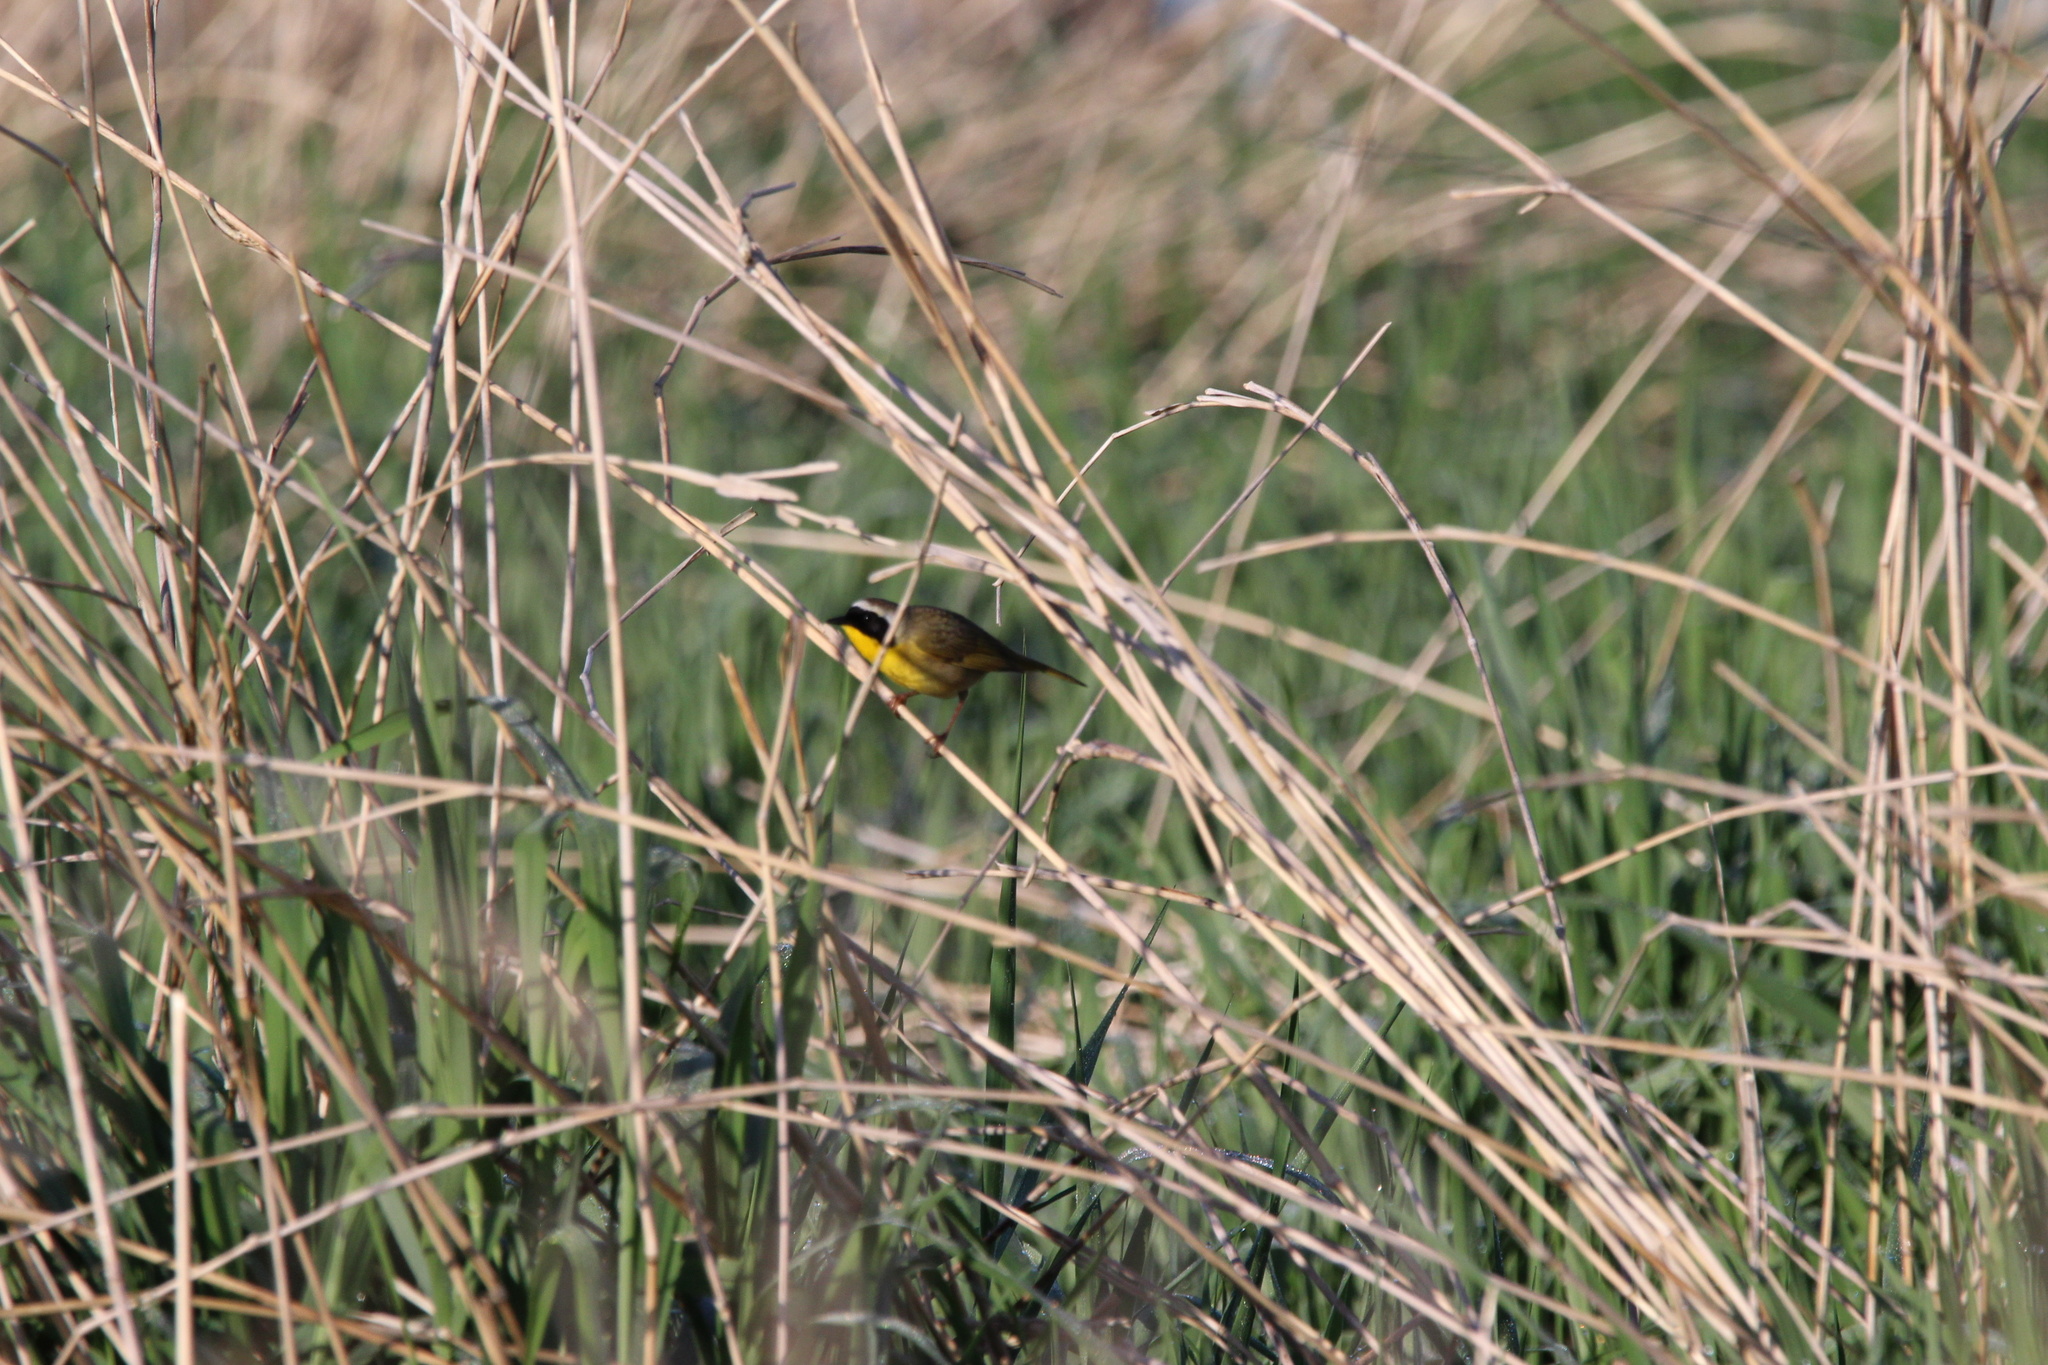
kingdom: Animalia
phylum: Chordata
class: Aves
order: Passeriformes
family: Parulidae
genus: Geothlypis
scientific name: Geothlypis trichas
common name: Common yellowthroat
